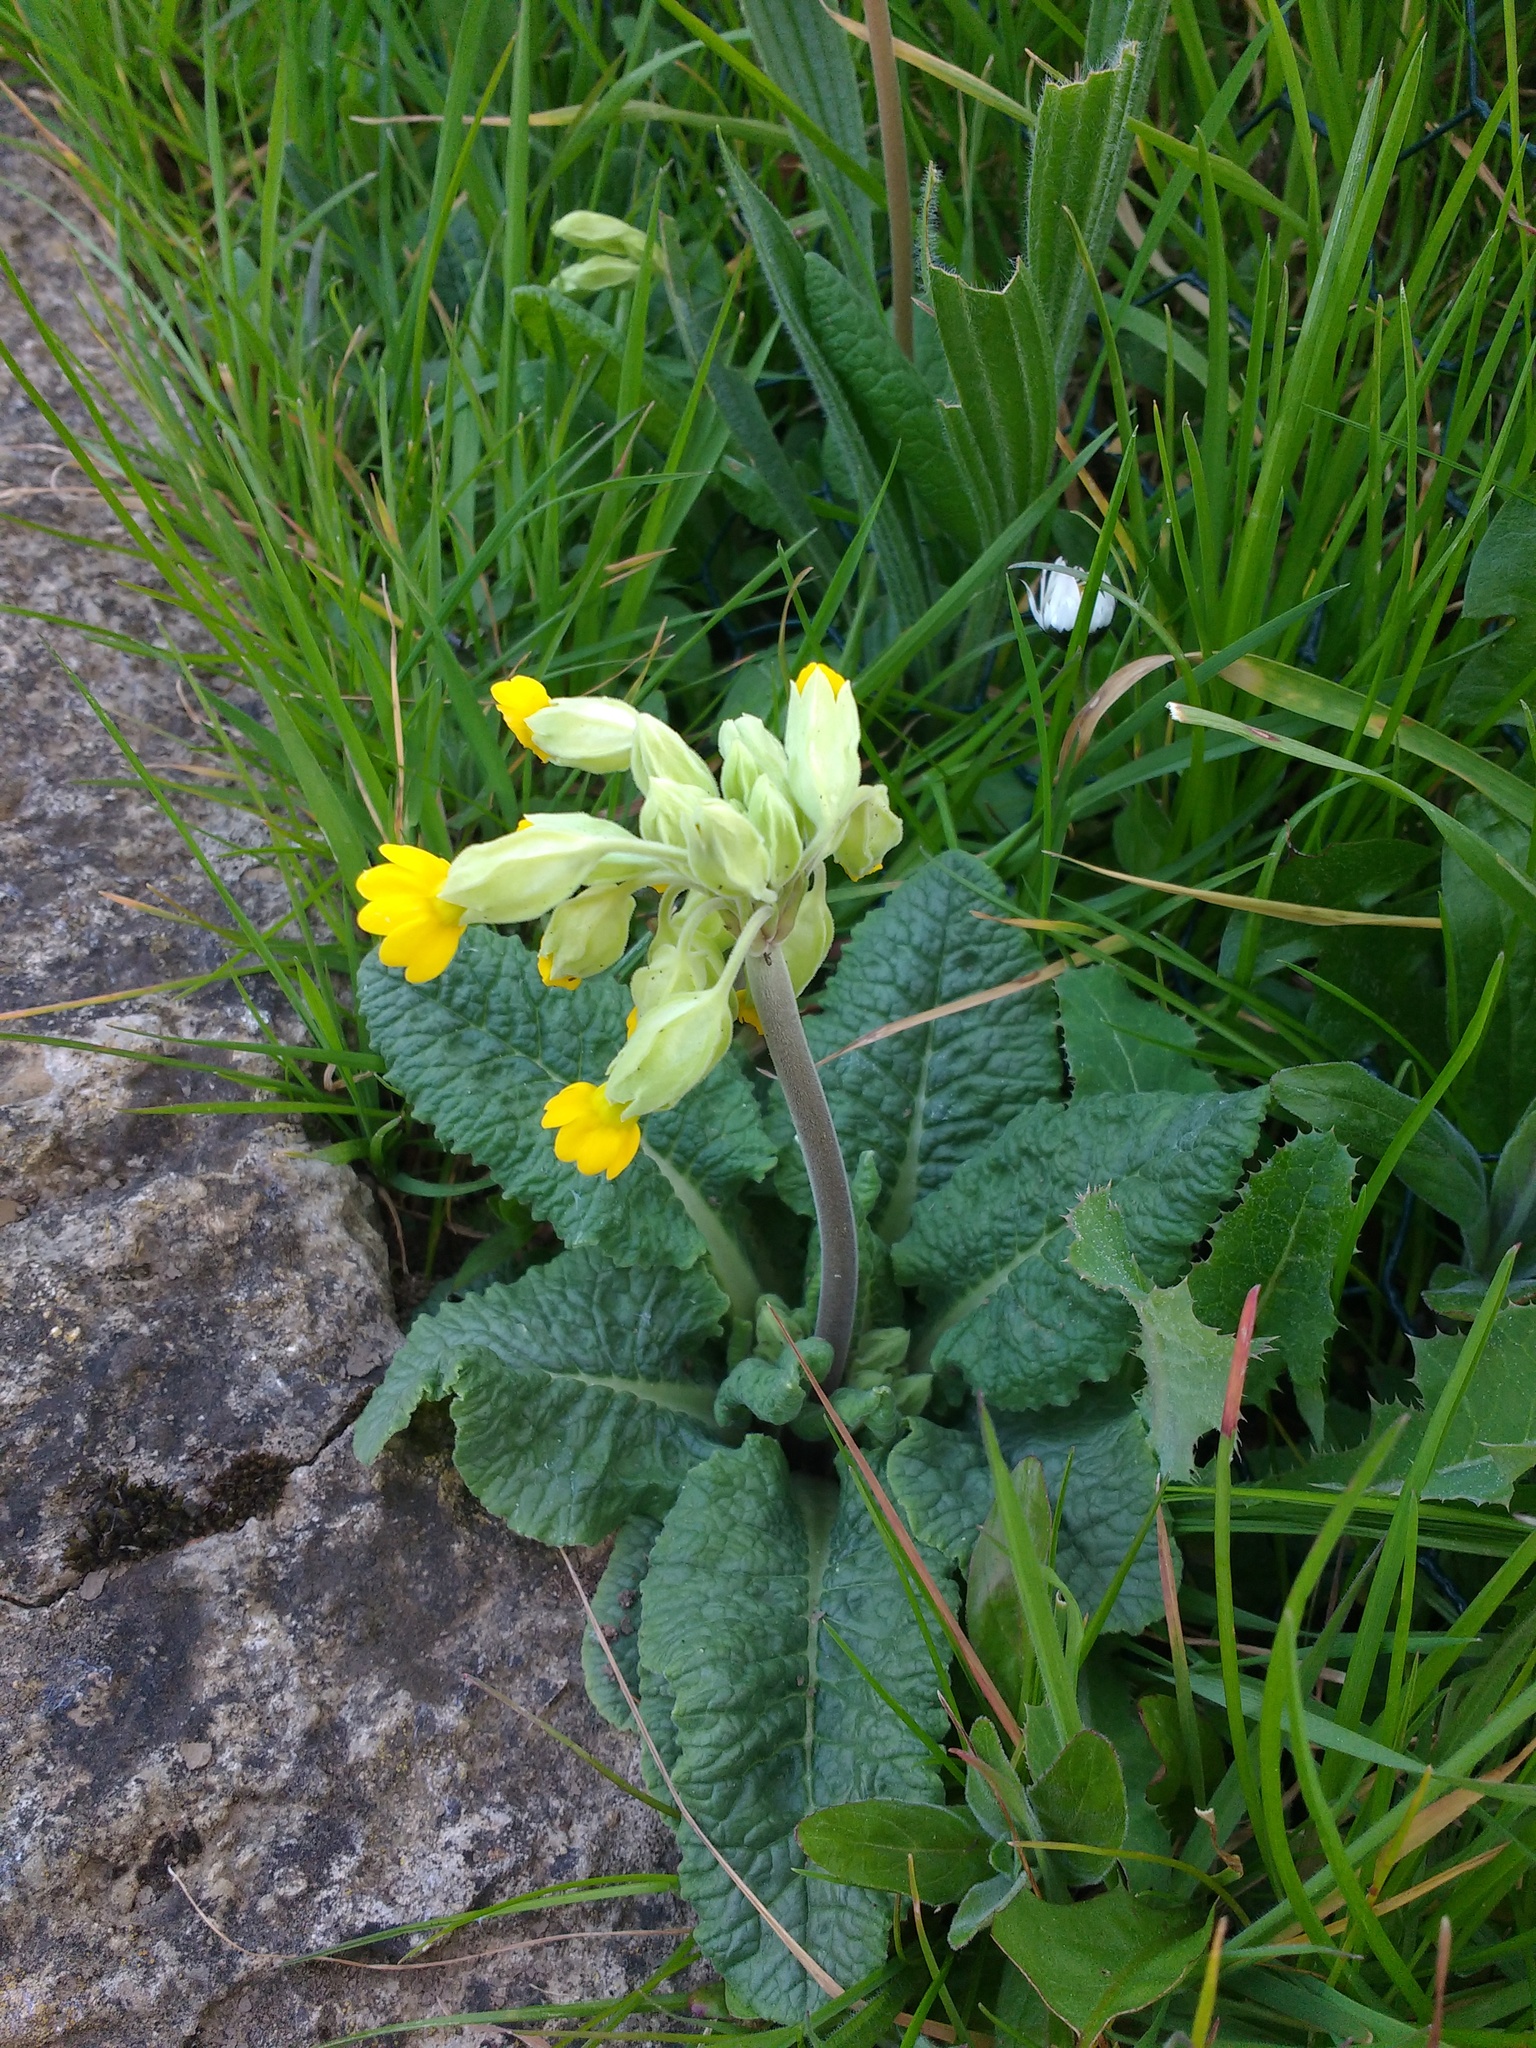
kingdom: Plantae
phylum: Tracheophyta
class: Magnoliopsida
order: Ericales
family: Primulaceae
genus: Primula
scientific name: Primula veris
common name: Cowslip
